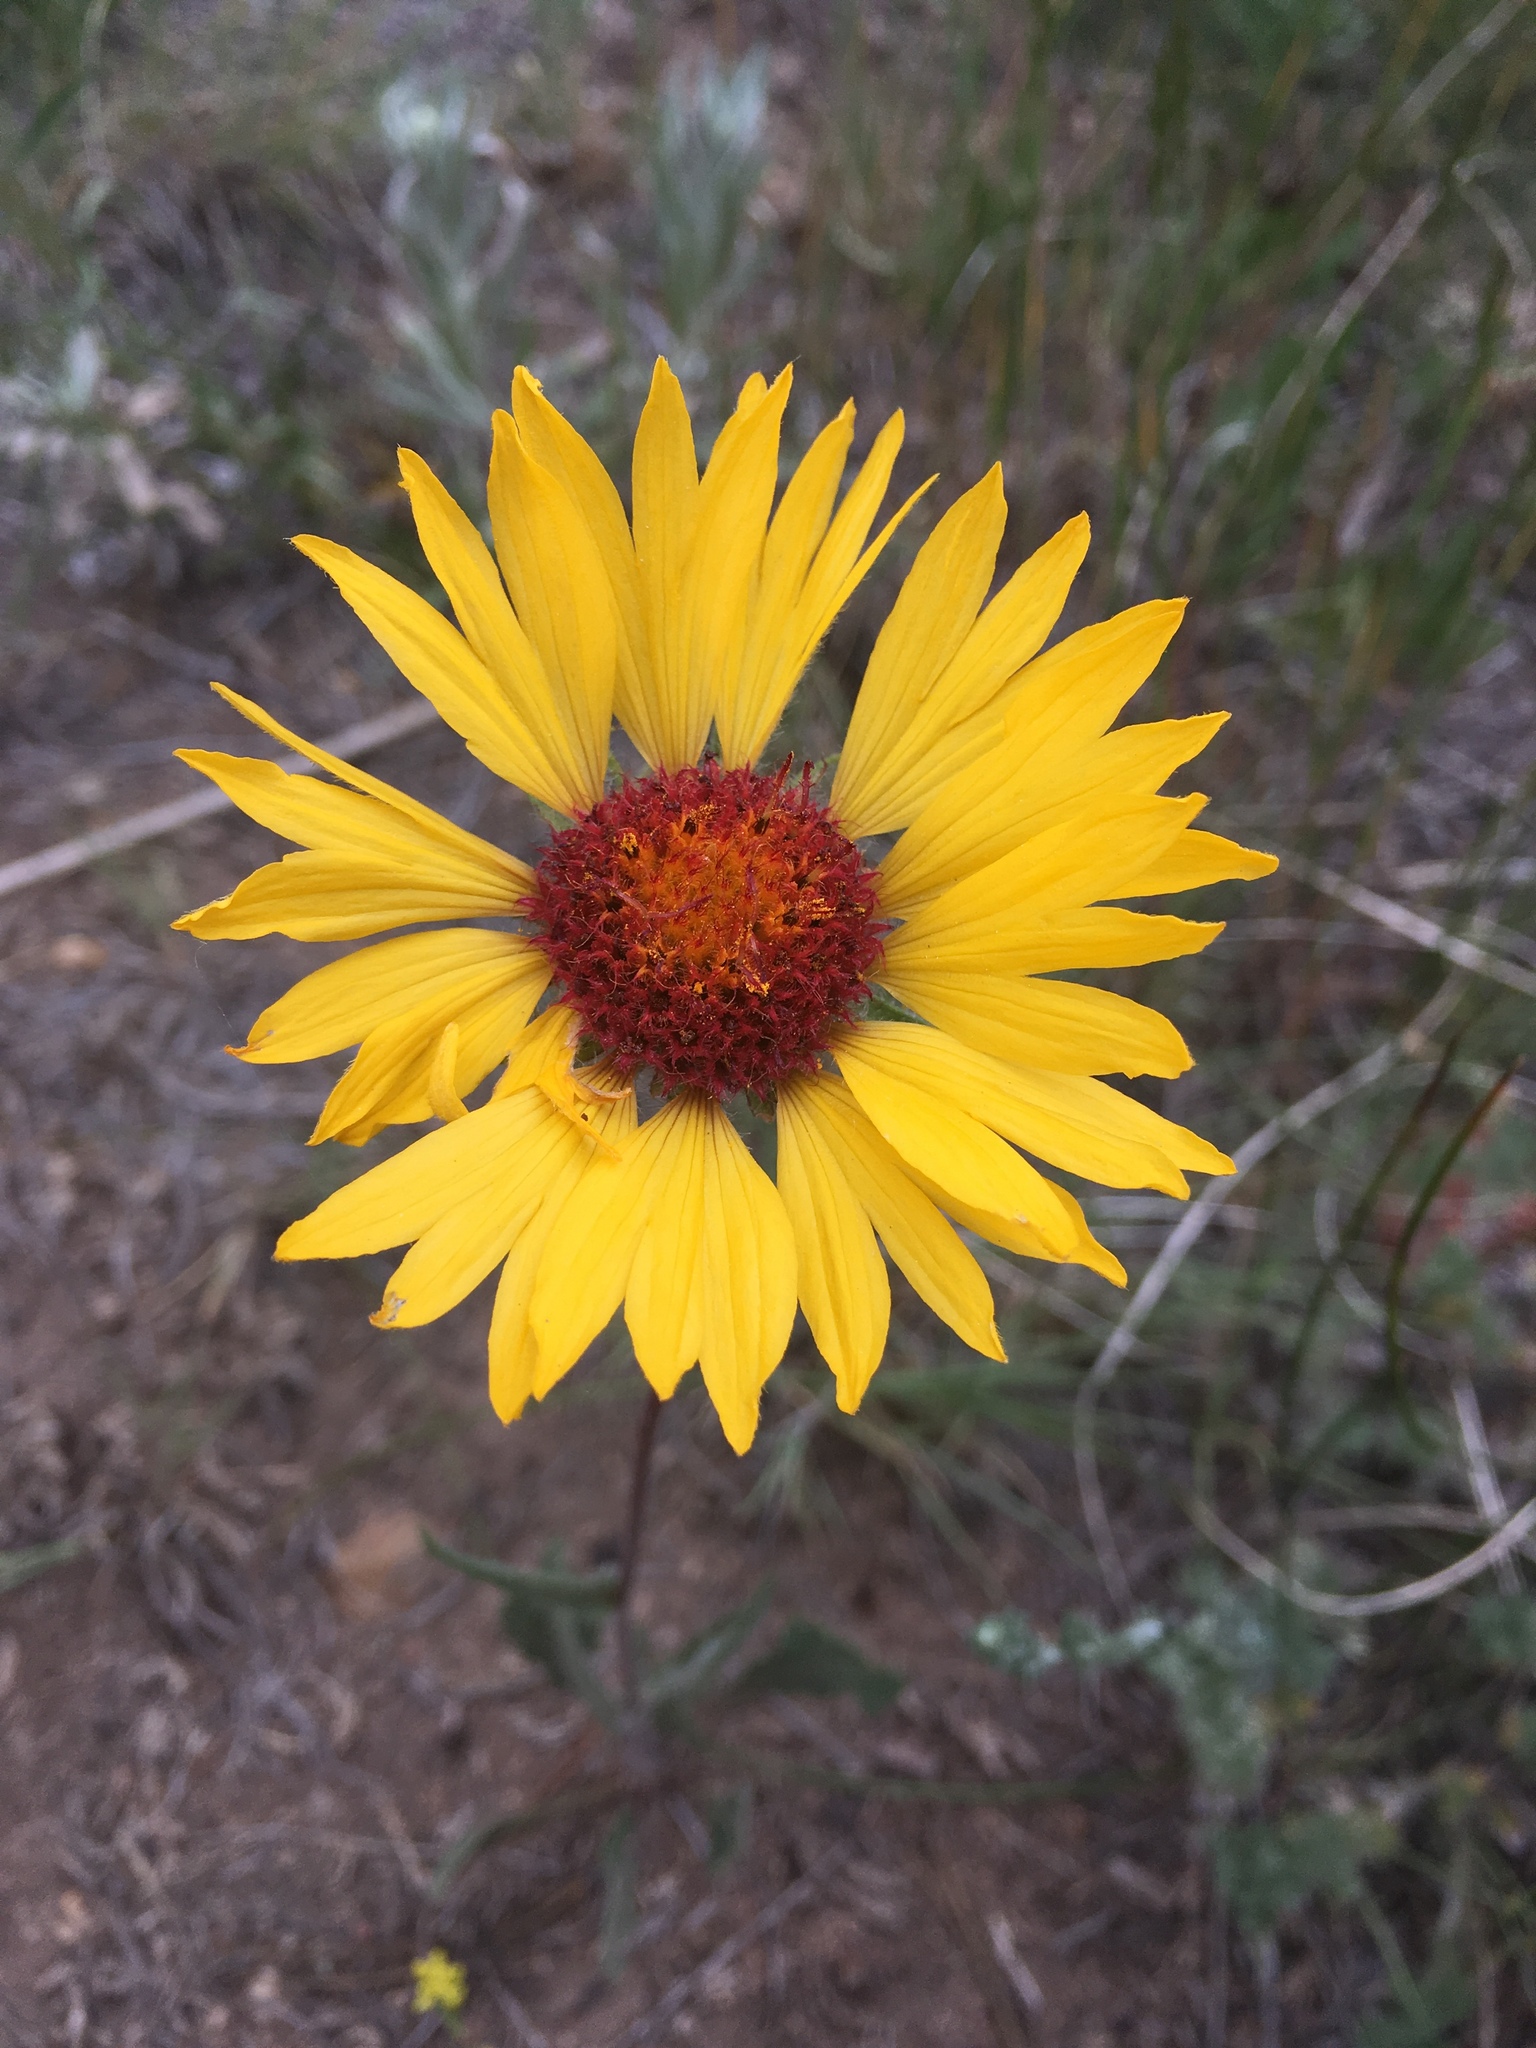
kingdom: Plantae
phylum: Tracheophyta
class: Magnoliopsida
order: Asterales
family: Asteraceae
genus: Gaillardia
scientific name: Gaillardia aristata
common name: Blanket-flower
